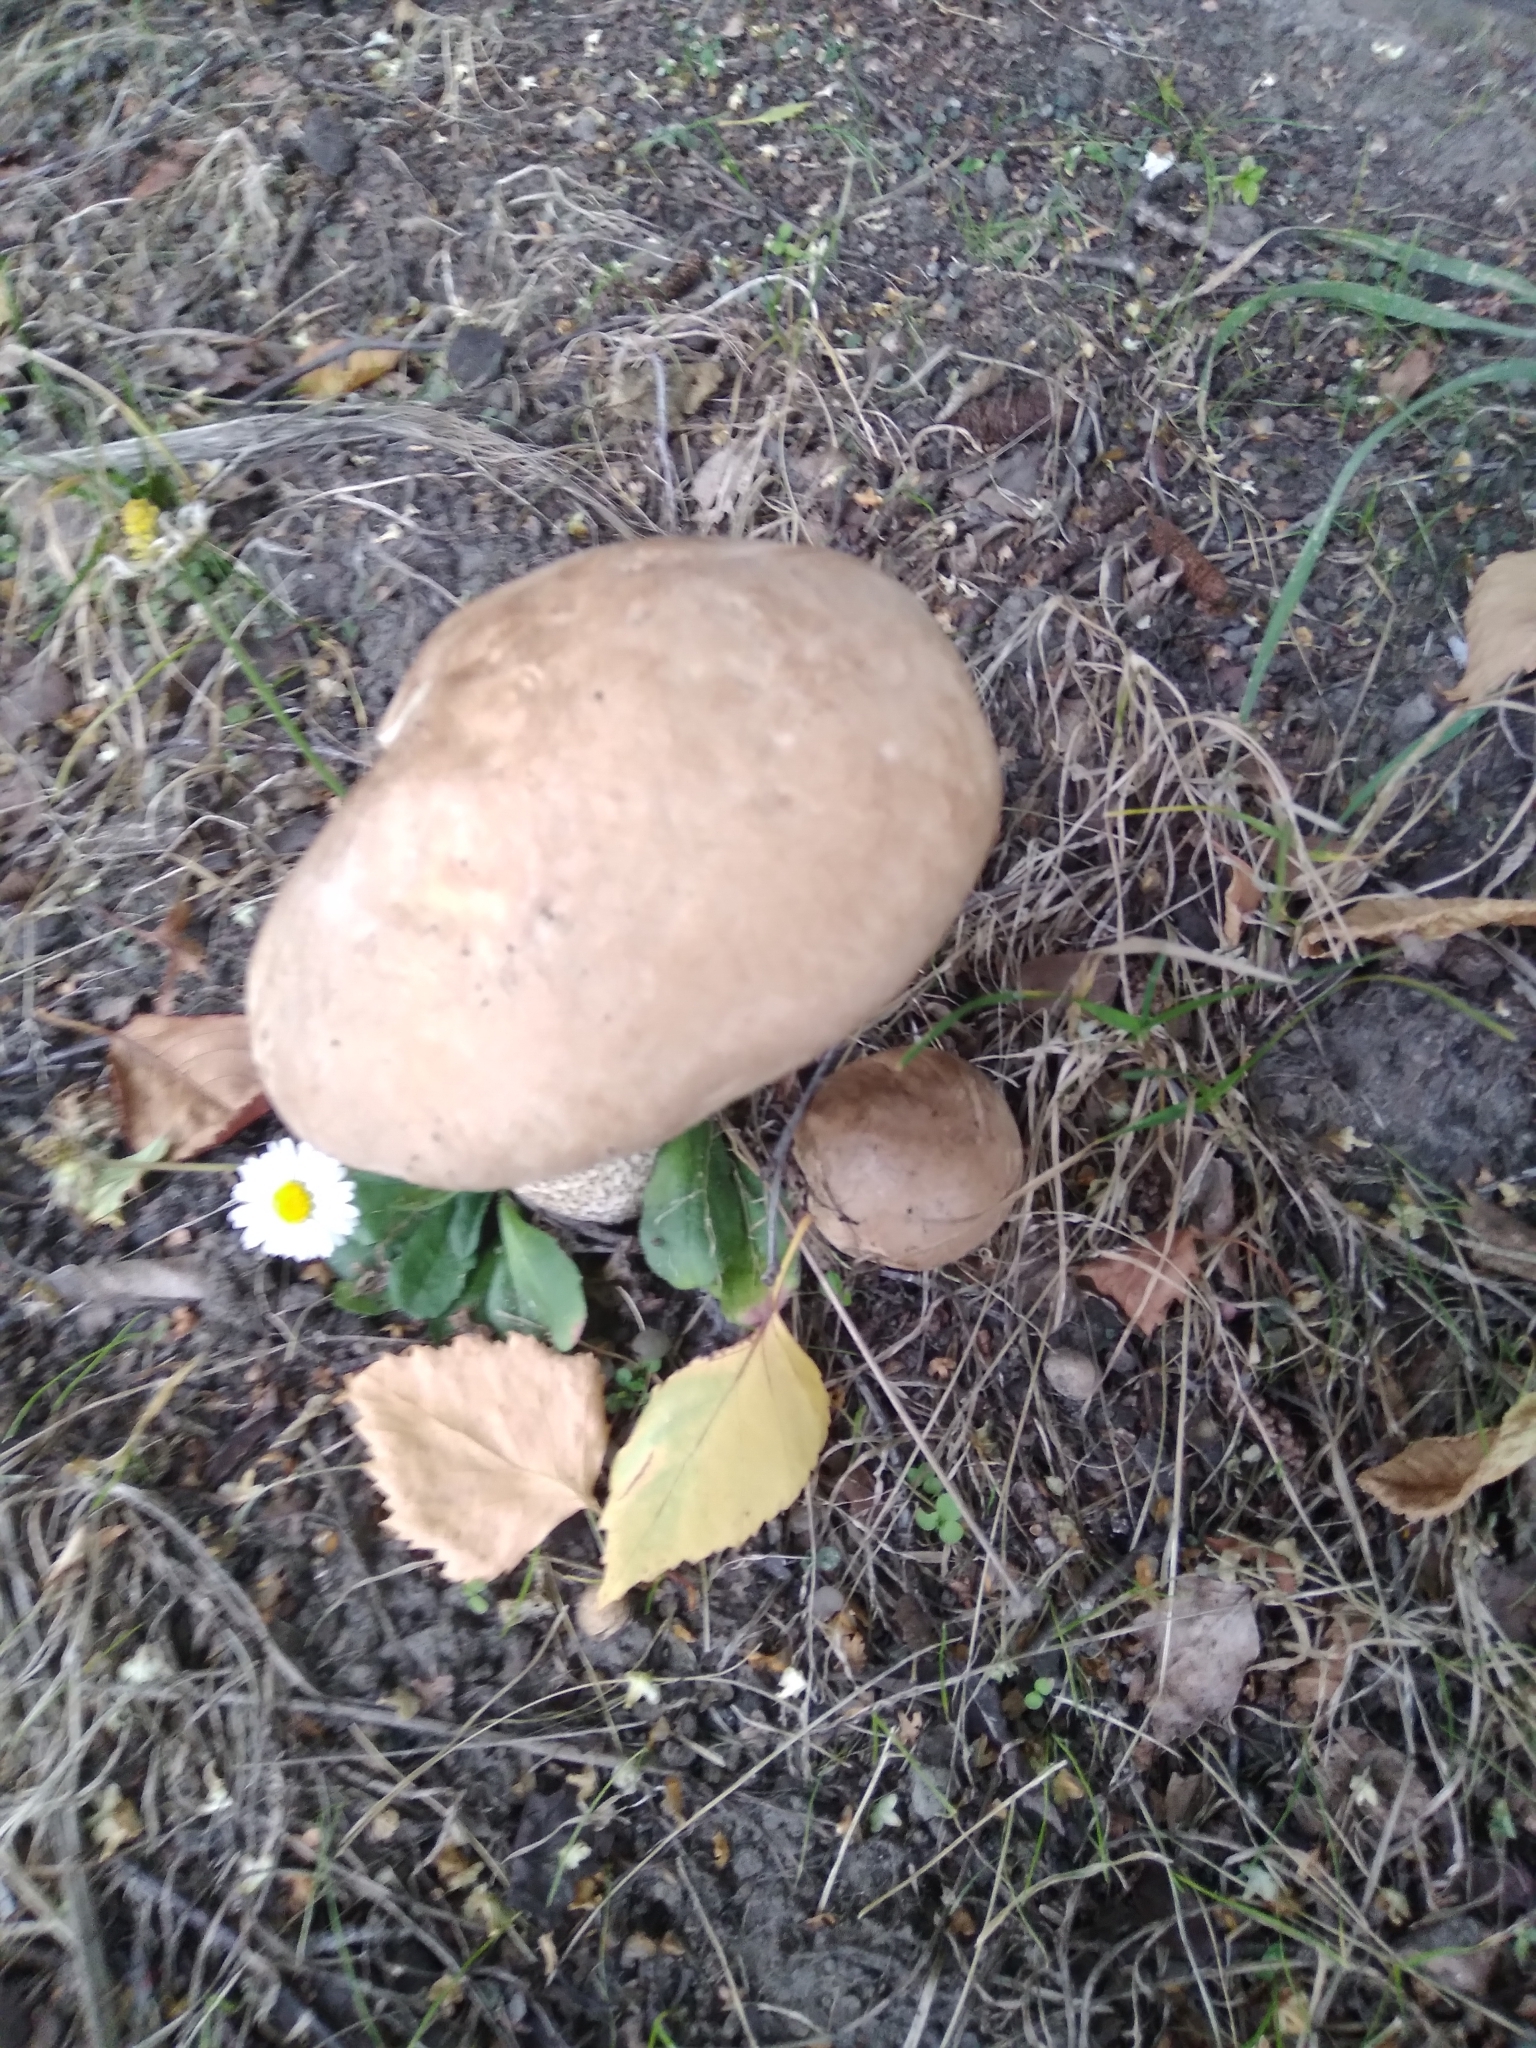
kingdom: Fungi
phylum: Basidiomycota
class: Agaricomycetes
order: Boletales
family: Boletaceae
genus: Leccinum
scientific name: Leccinum scabrum
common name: Blushing bolete
